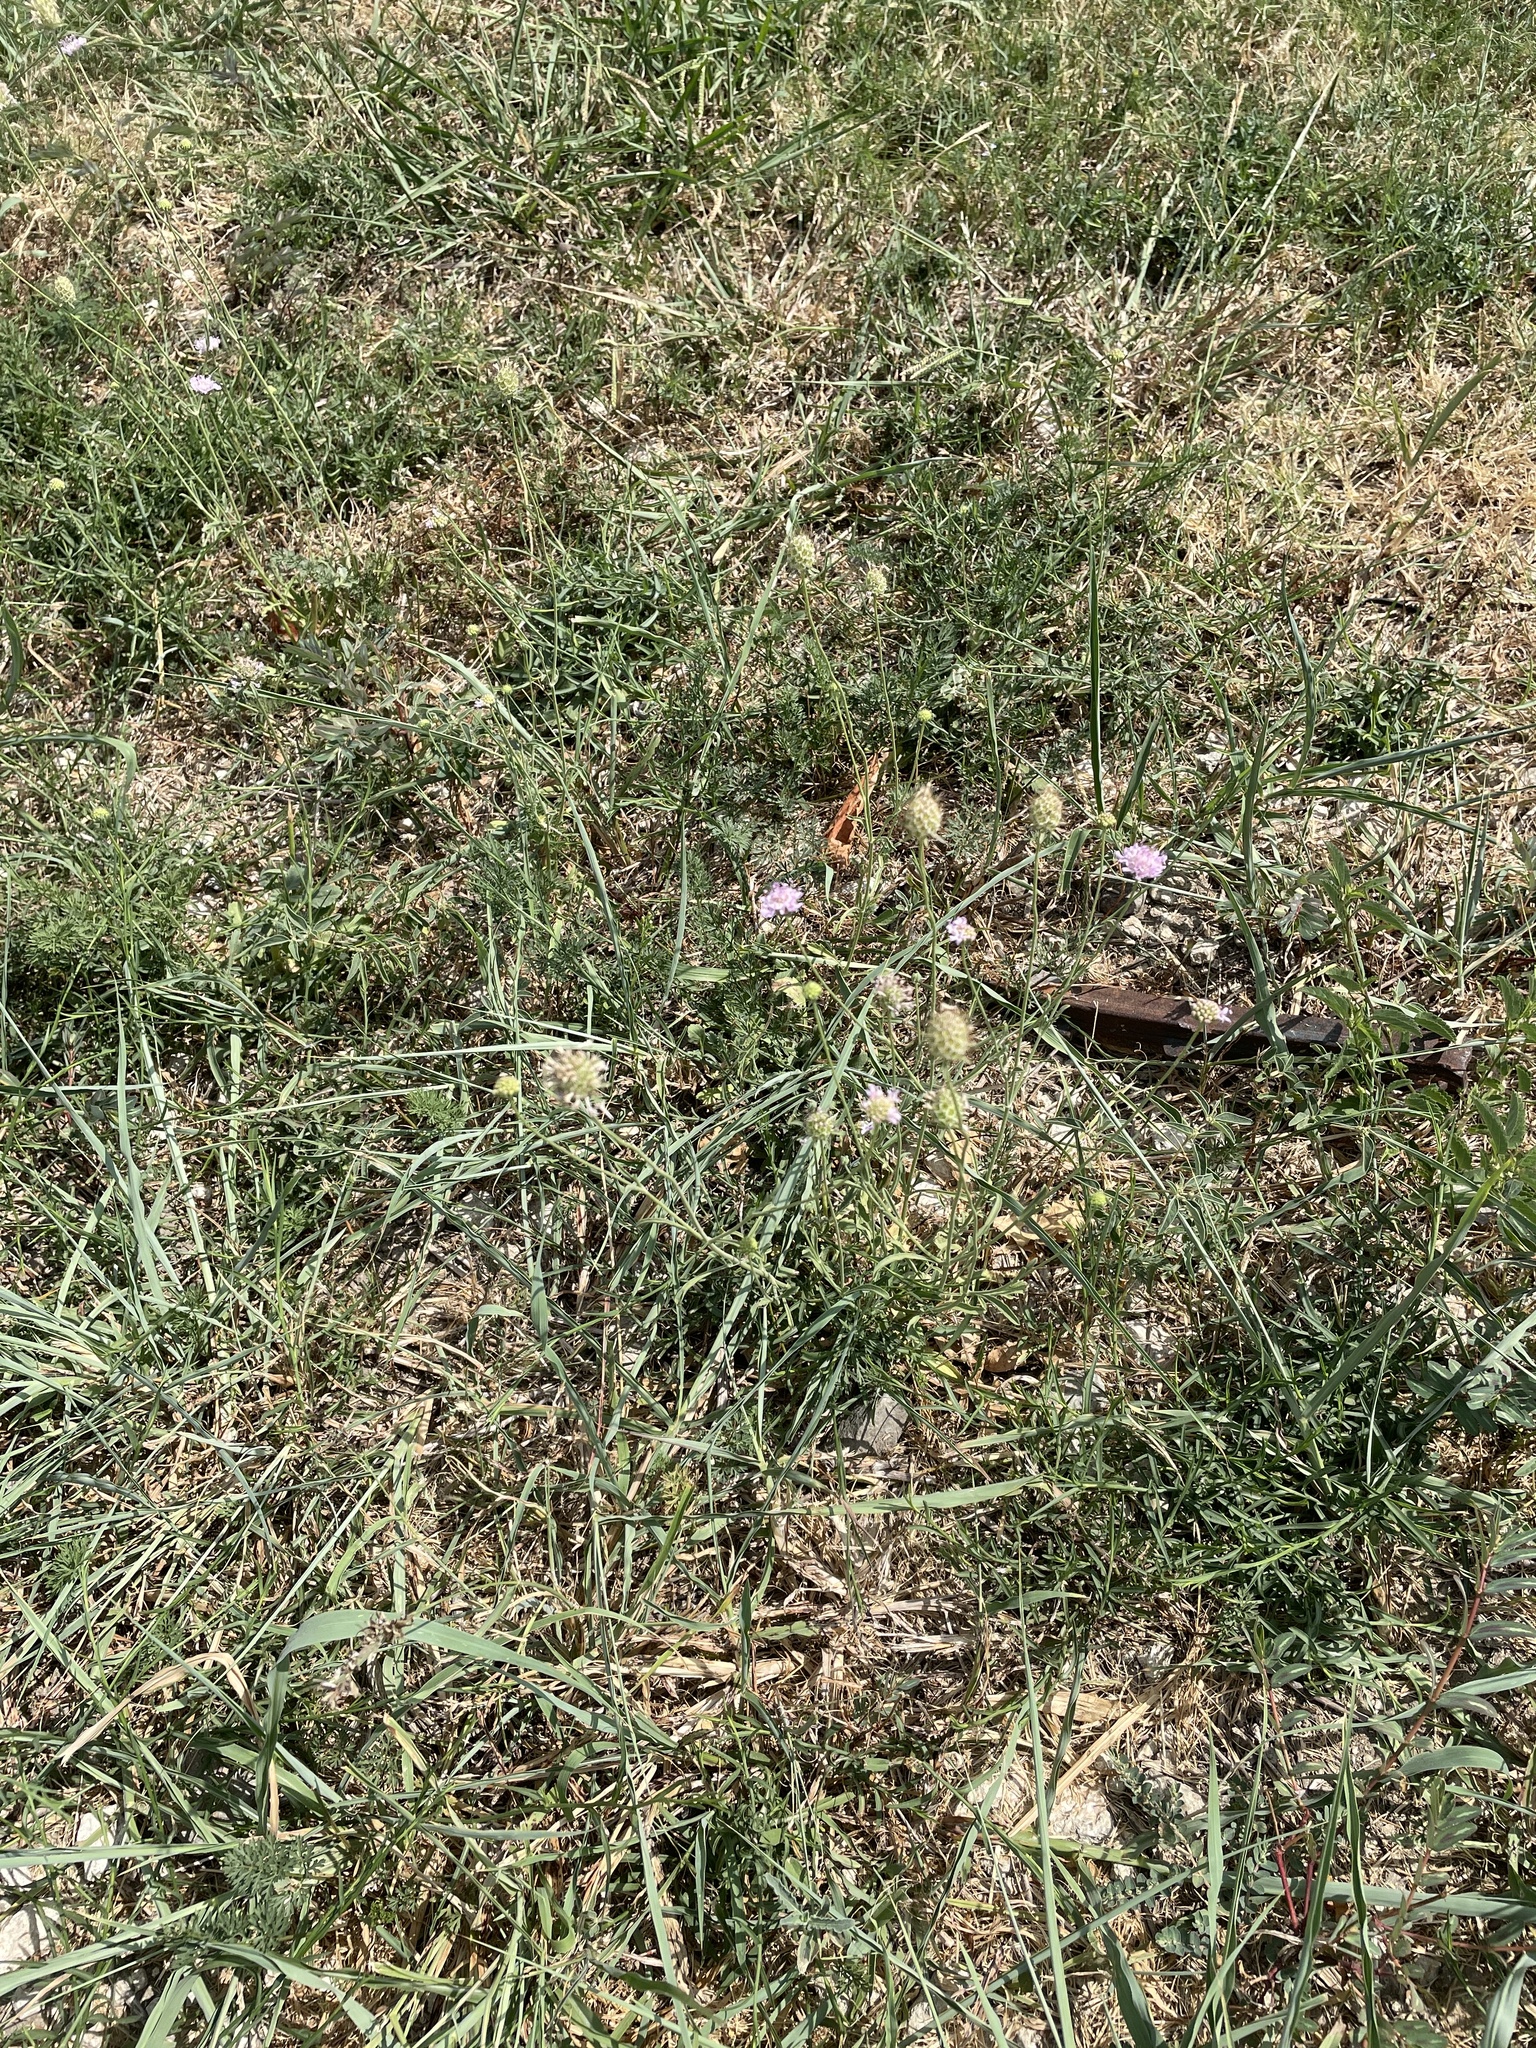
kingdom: Plantae
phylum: Tracheophyta
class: Magnoliopsida
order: Dipsacales
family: Caprifoliaceae
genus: Sixalix
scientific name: Sixalix atropurpurea
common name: Sweet scabious
